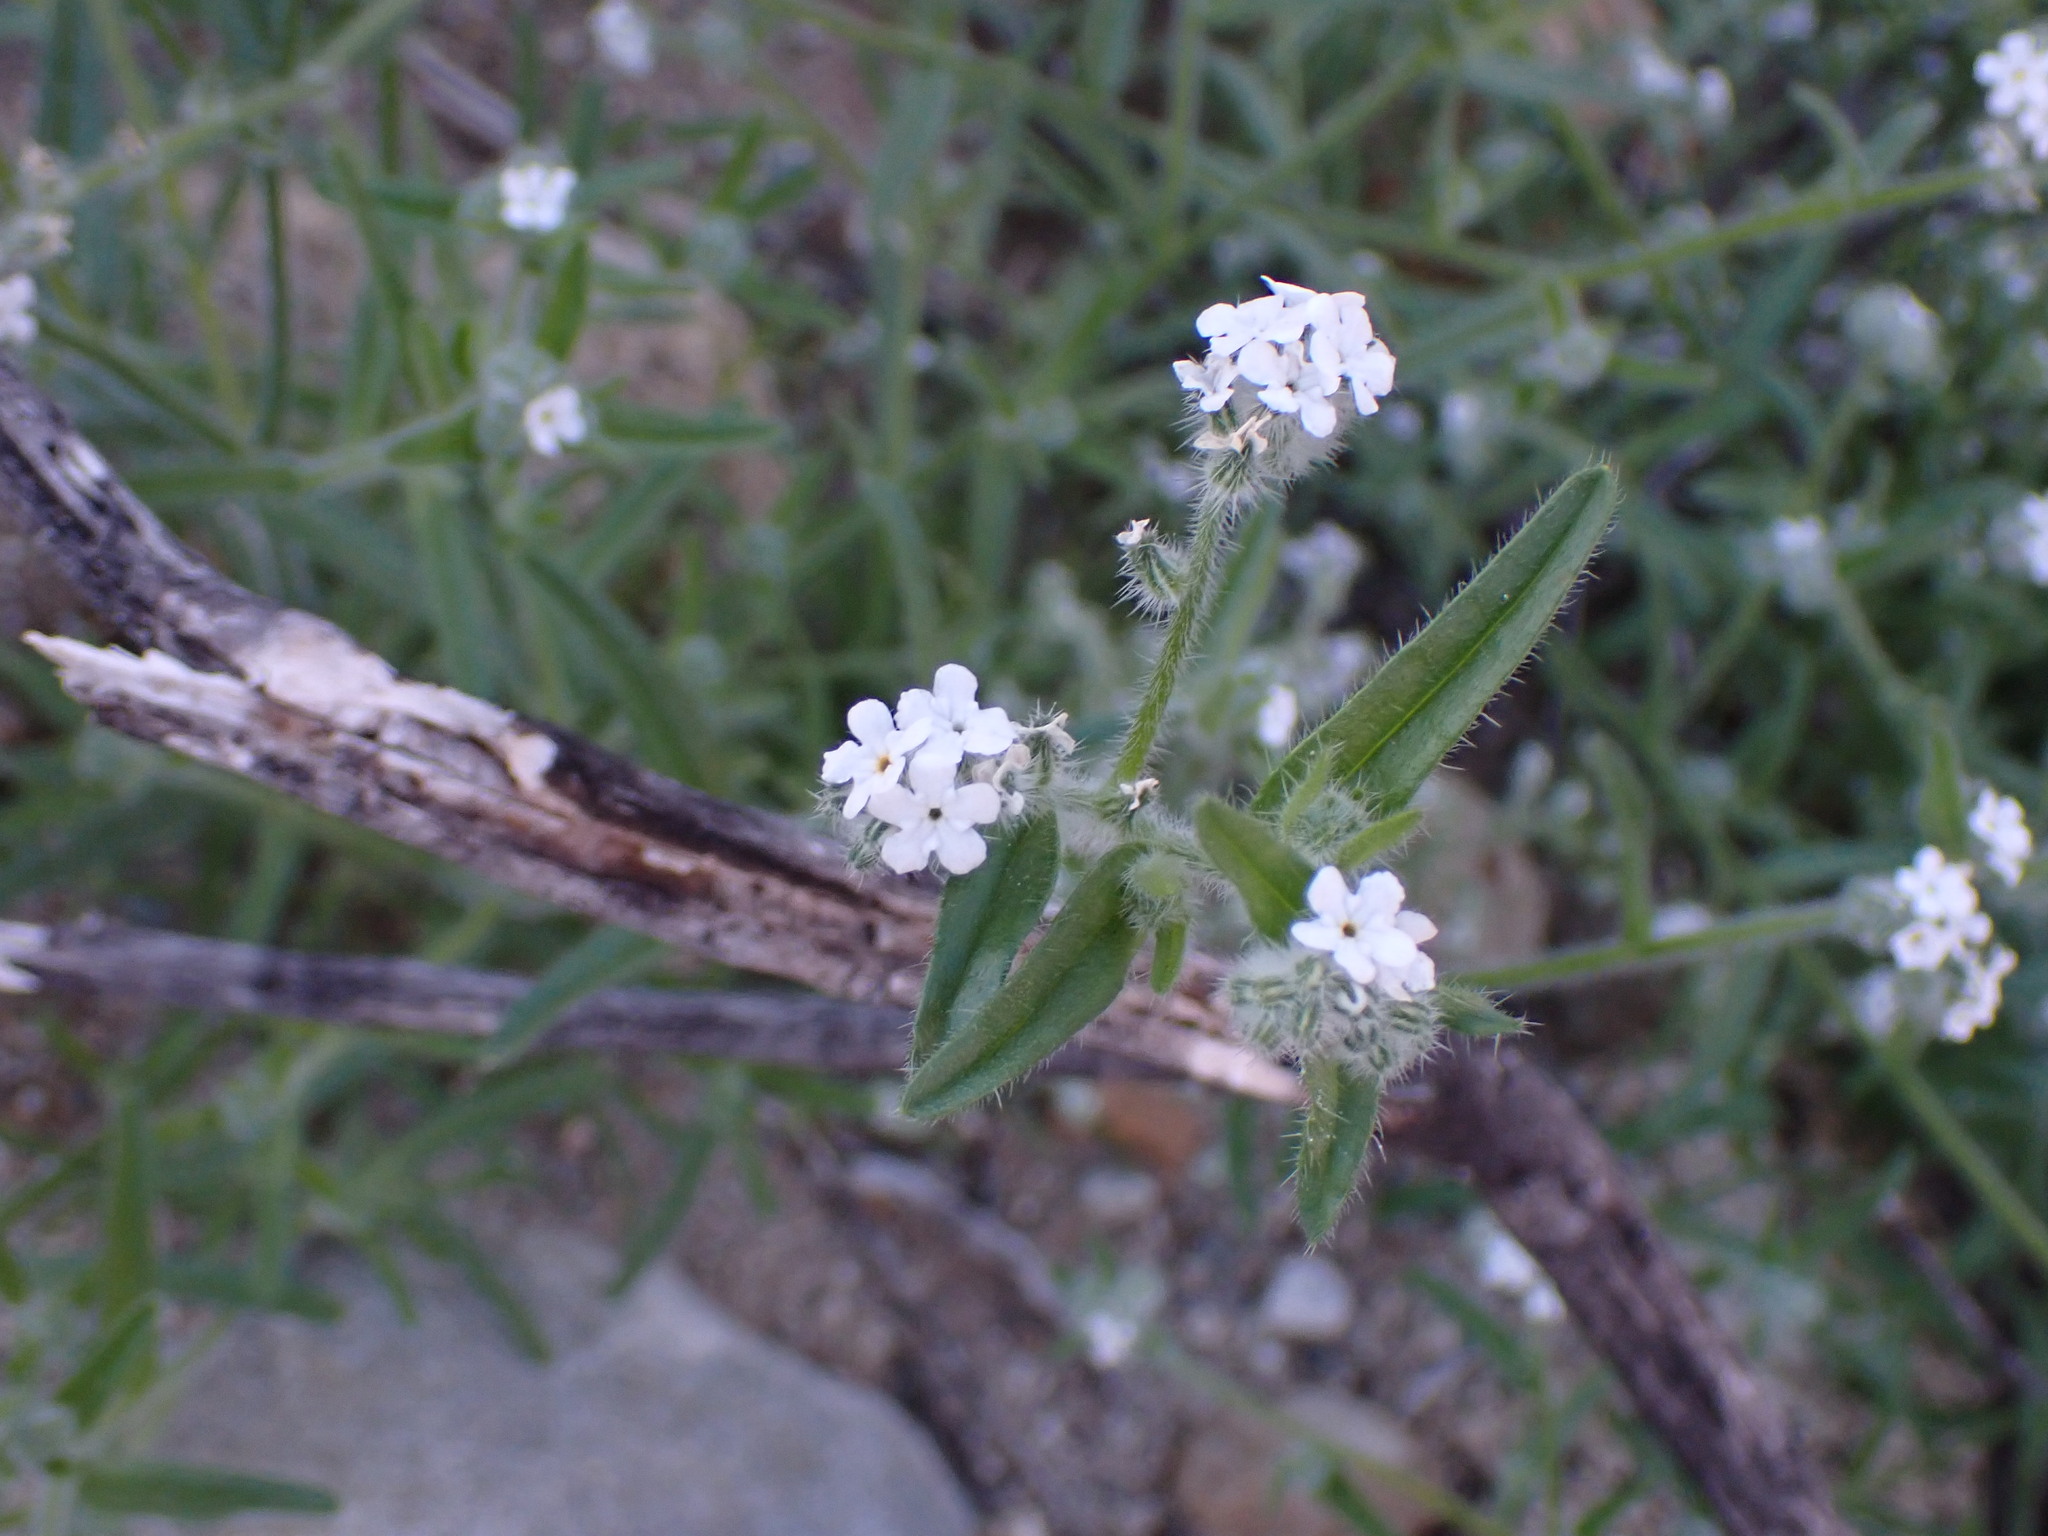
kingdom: Plantae
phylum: Tracheophyta
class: Magnoliopsida
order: Boraginales
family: Boraginaceae
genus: Cryptantha
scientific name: Cryptantha barbigera
